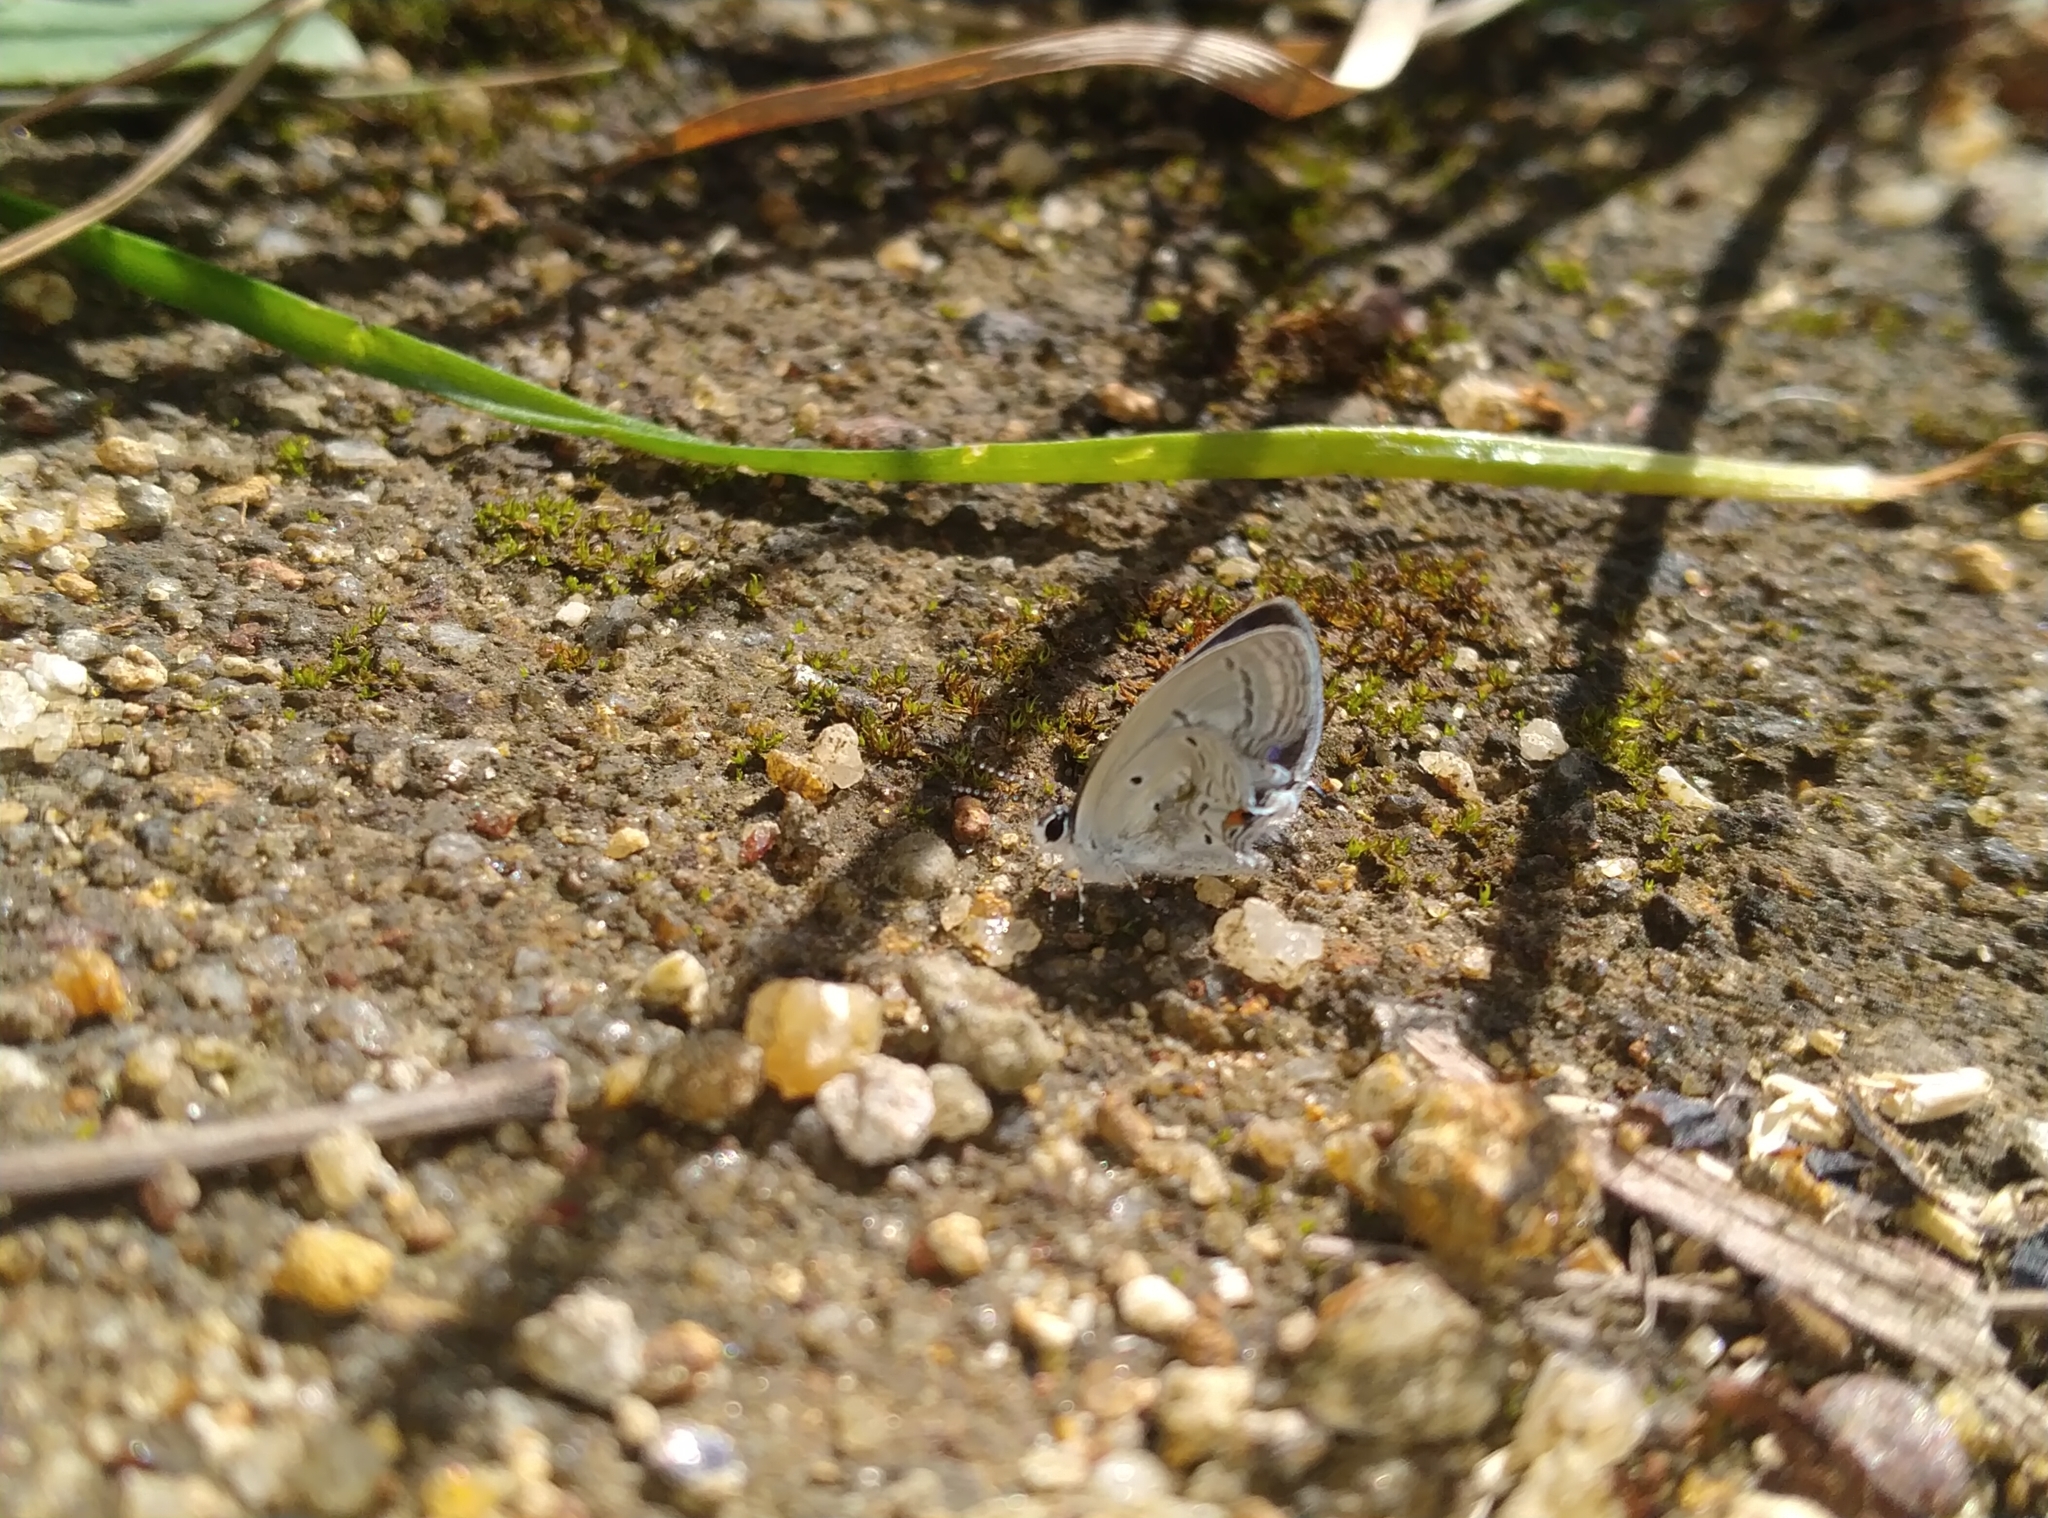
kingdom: Animalia
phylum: Arthropoda
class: Insecta
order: Lepidoptera
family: Lycaenidae
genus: Everes
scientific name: Everes lacturnus
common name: Orange-tipped pea-blue
